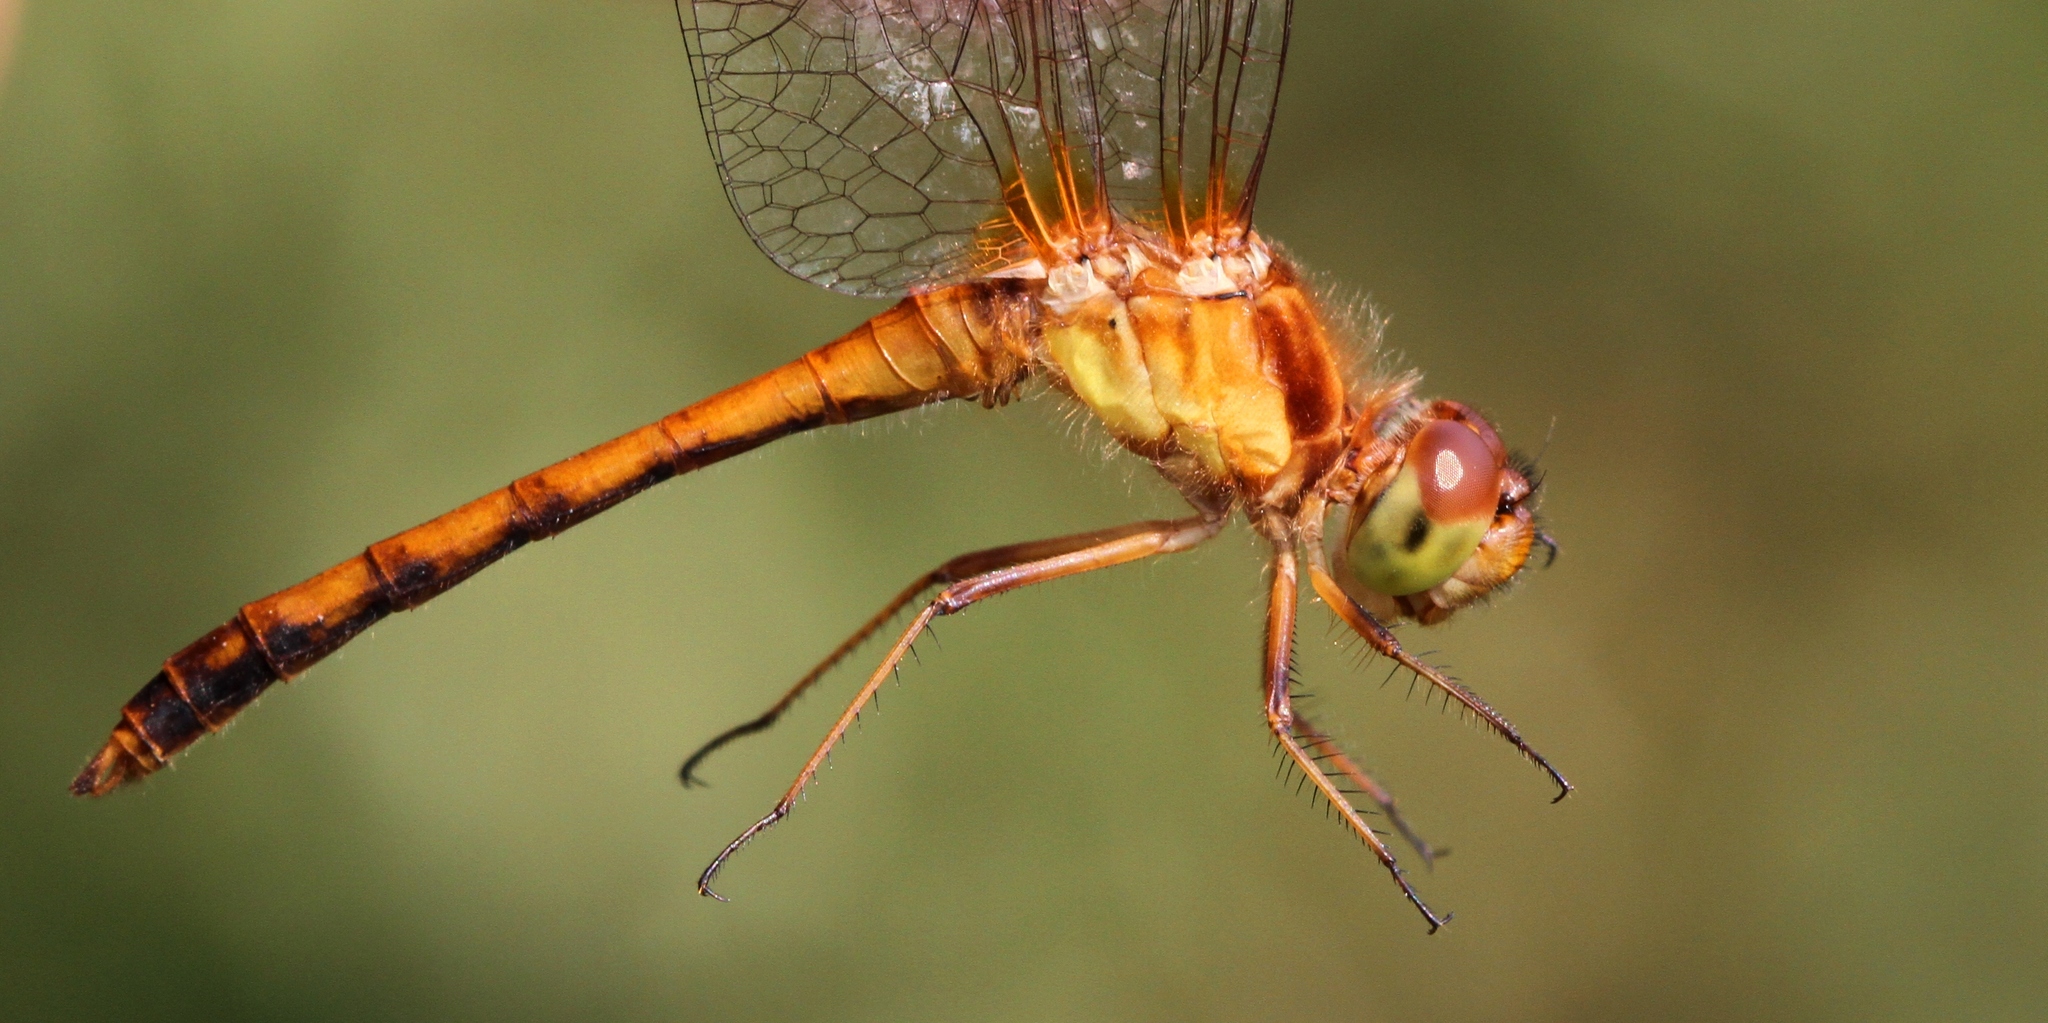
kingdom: Animalia
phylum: Arthropoda
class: Insecta
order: Odonata
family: Libellulidae
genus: Sympetrum
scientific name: Sympetrum vicinum
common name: Autumn meadowhawk
